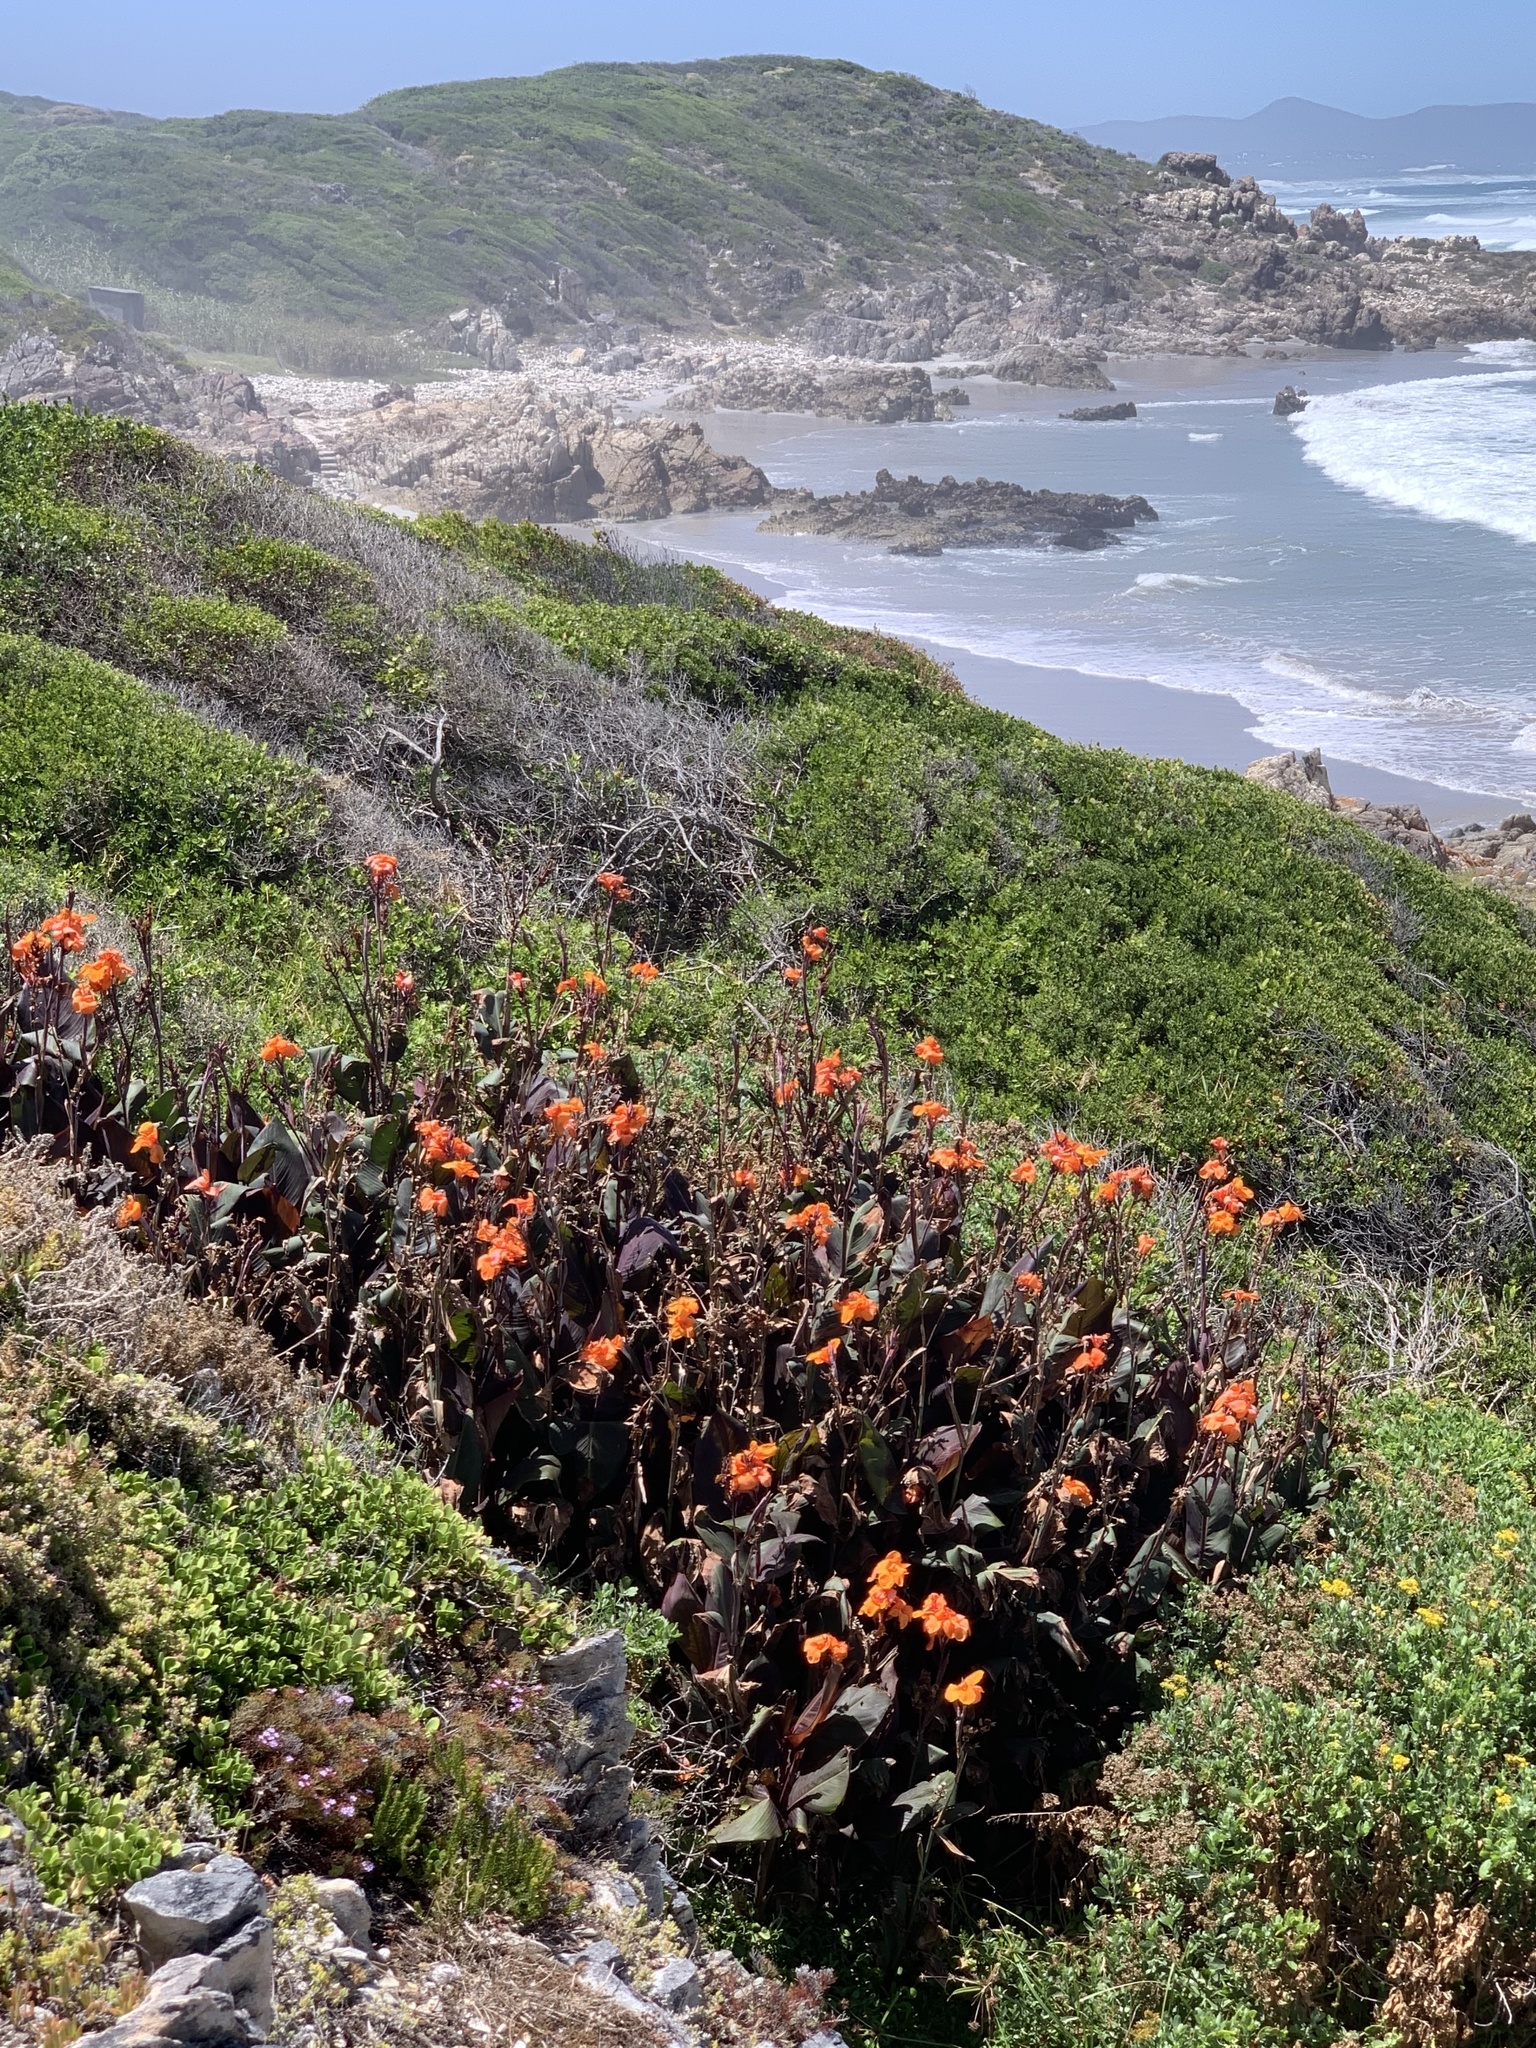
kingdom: Plantae
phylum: Tracheophyta
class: Liliopsida
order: Zingiberales
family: Cannaceae
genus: Canna
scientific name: Canna hybrida
